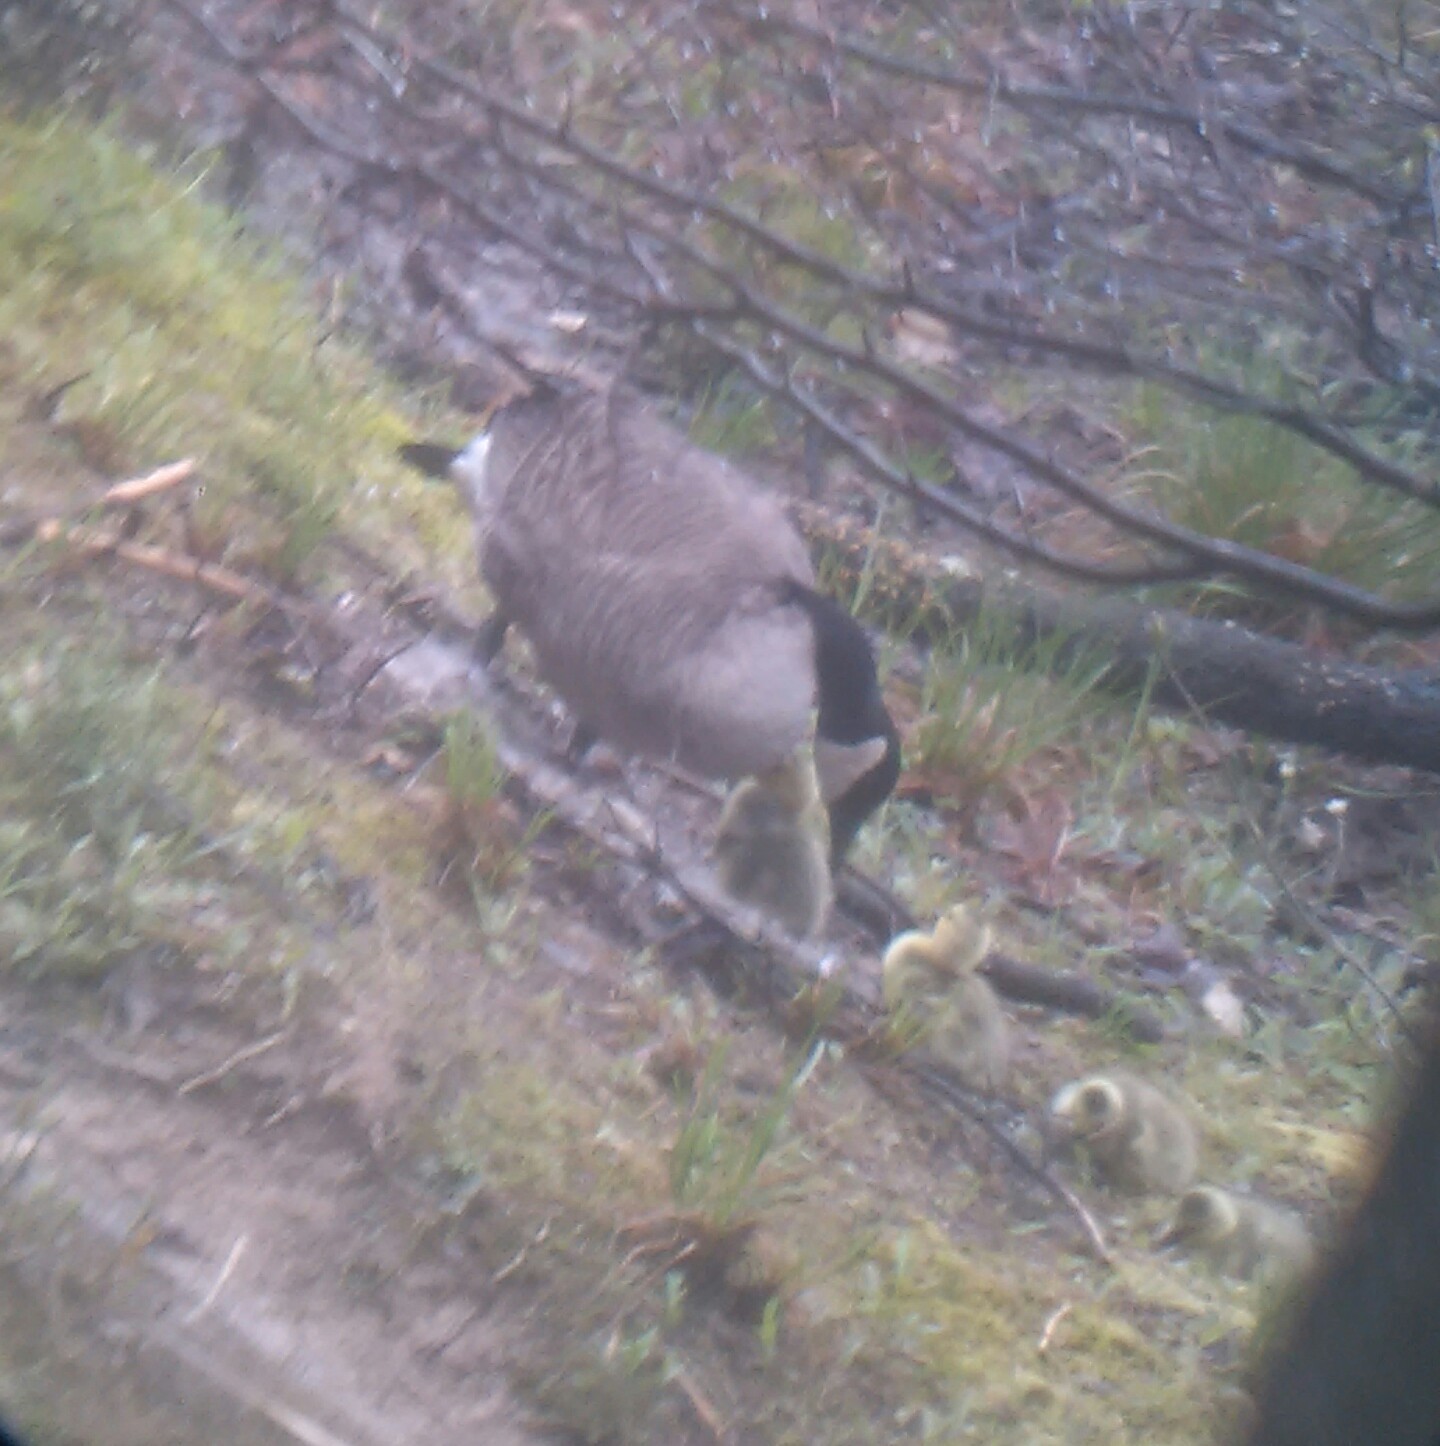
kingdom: Animalia
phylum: Chordata
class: Aves
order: Anseriformes
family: Anatidae
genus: Branta
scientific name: Branta canadensis
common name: Canada goose
